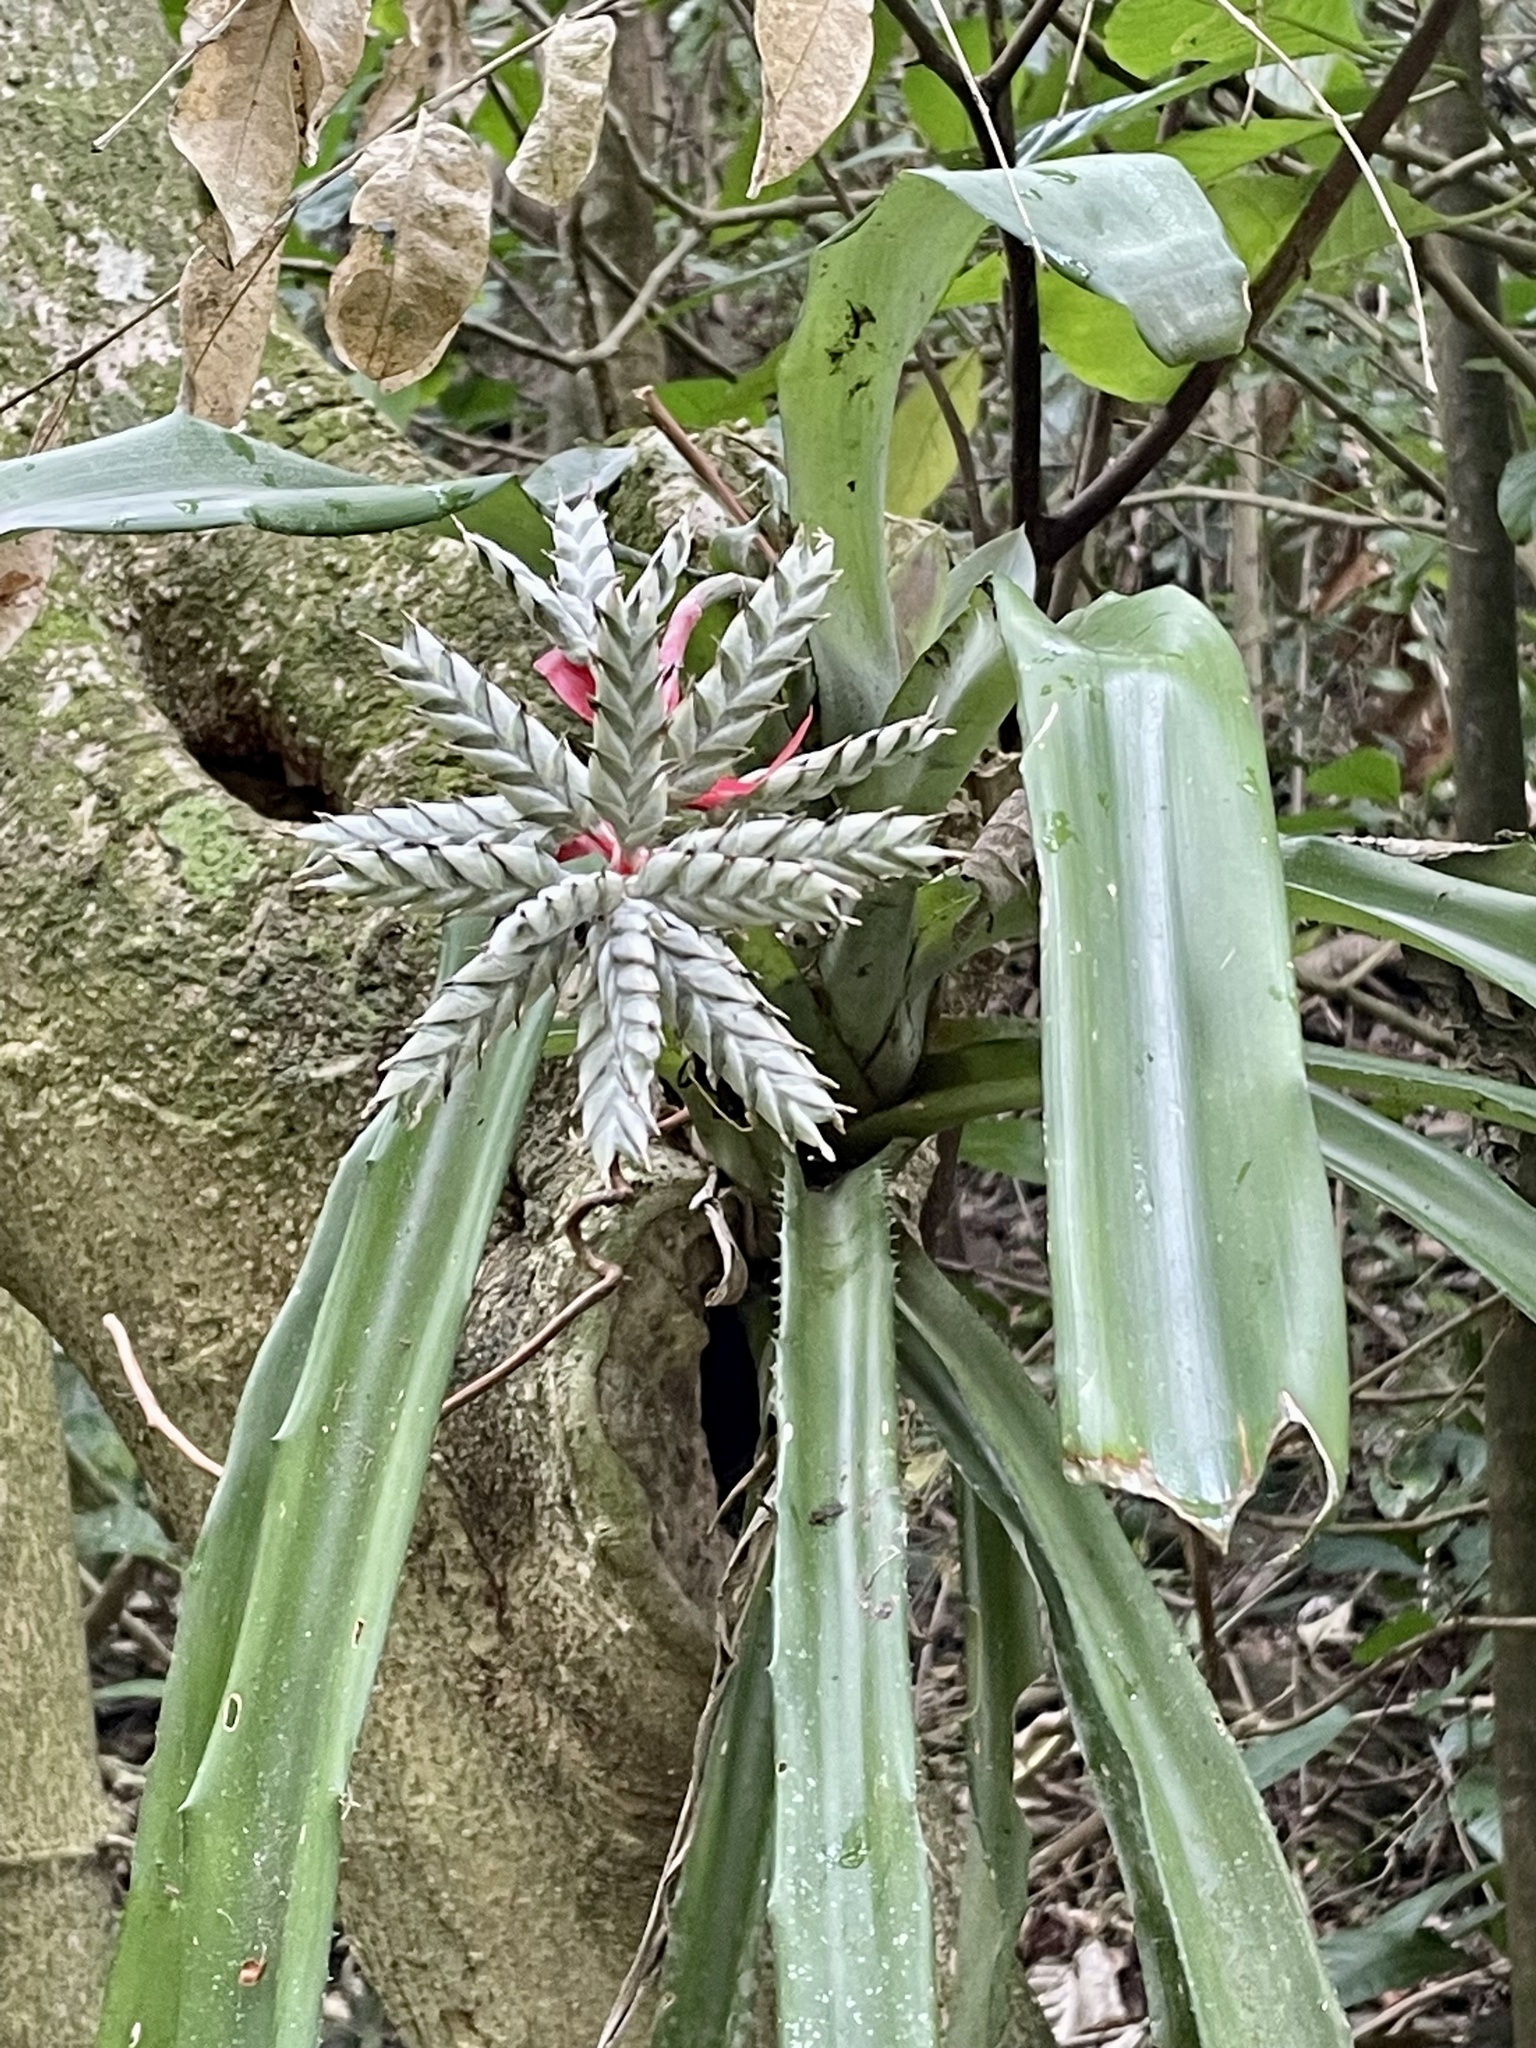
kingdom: Plantae
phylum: Tracheophyta
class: Liliopsida
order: Poales
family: Bromeliaceae
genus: Aechmea
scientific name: Aechmea pubescens
